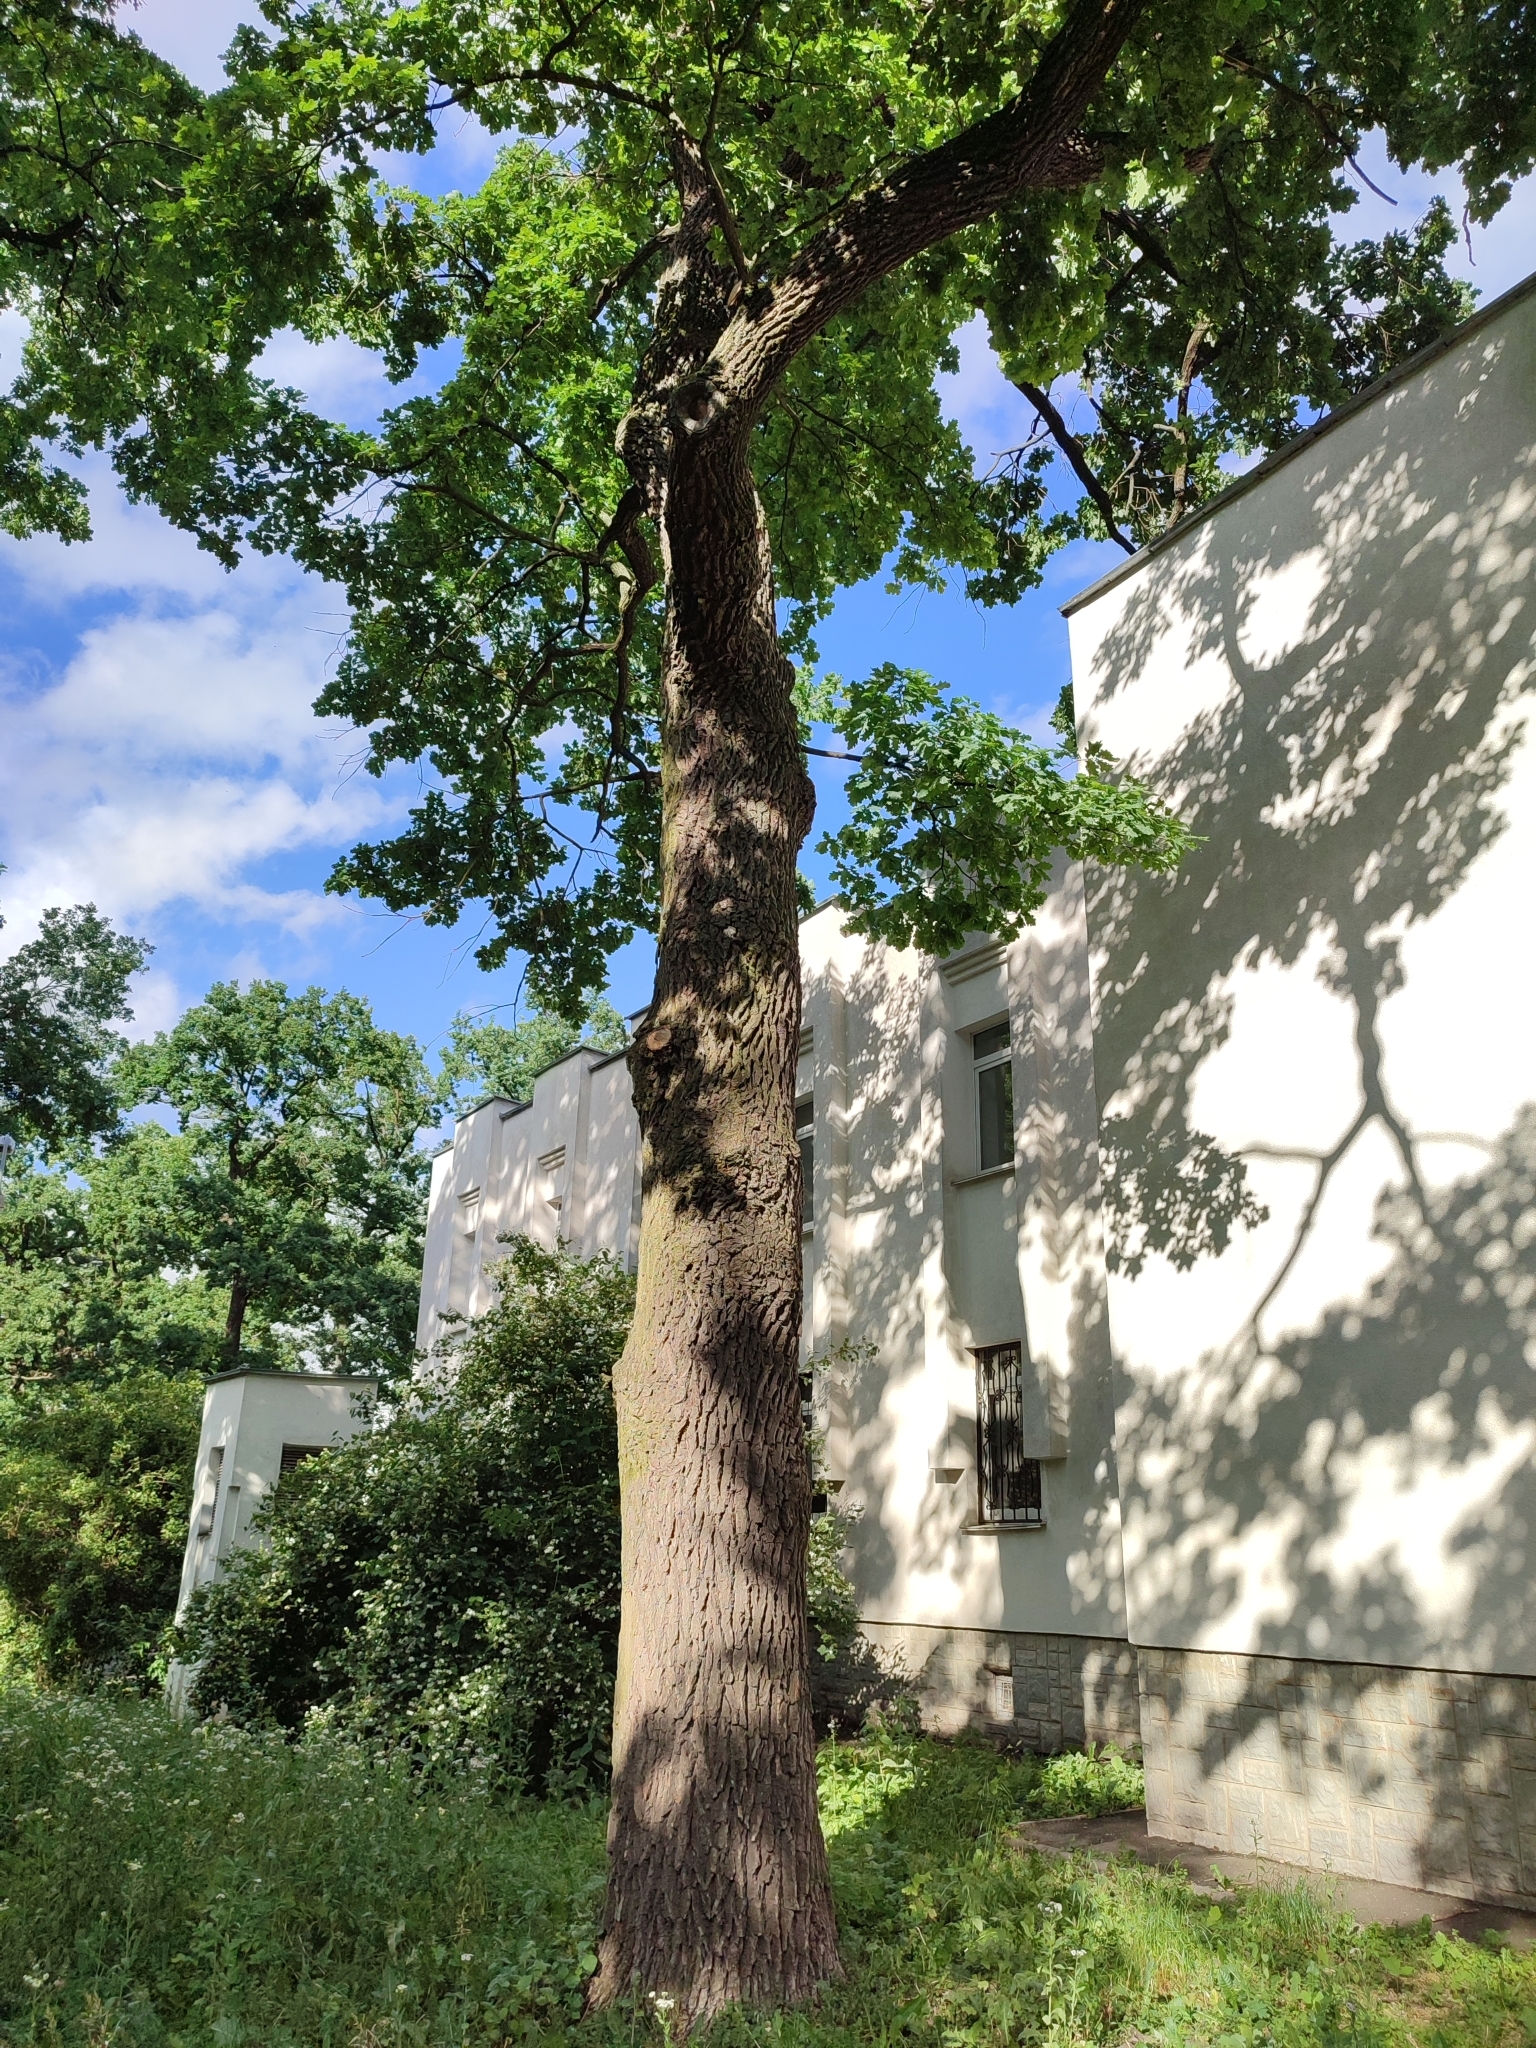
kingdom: Plantae
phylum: Tracheophyta
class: Magnoliopsida
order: Fagales
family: Fagaceae
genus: Quercus
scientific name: Quercus robur
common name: Pedunculate oak
